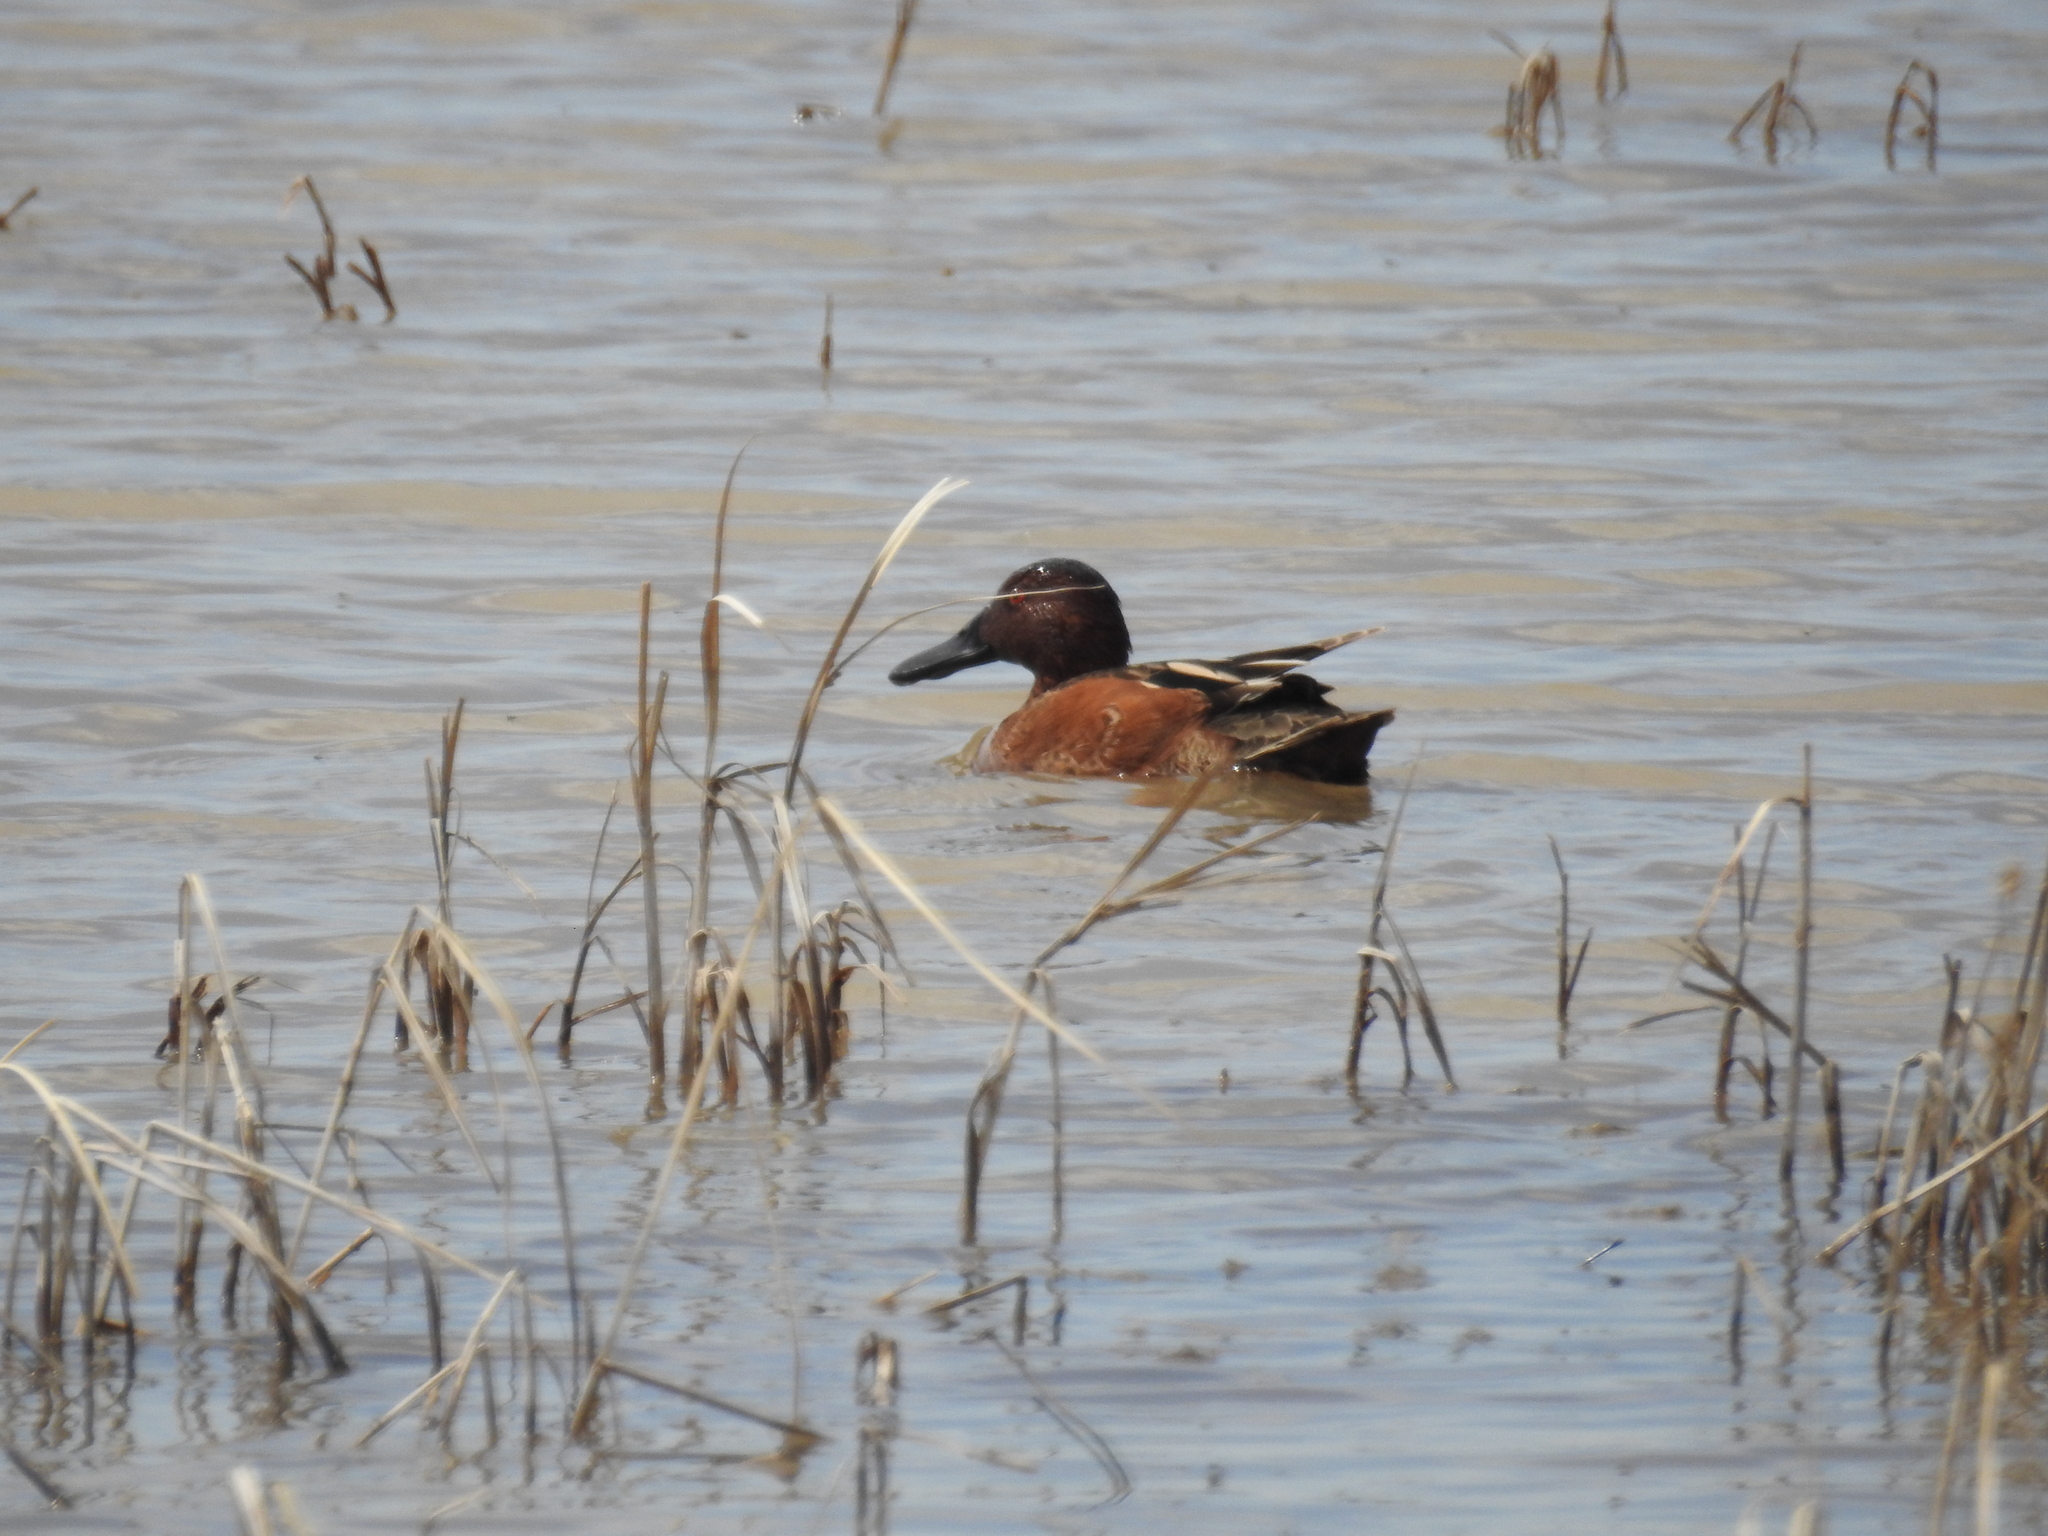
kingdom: Animalia
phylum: Chordata
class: Aves
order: Anseriformes
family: Anatidae
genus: Spatula
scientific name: Spatula cyanoptera
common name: Cinnamon teal
